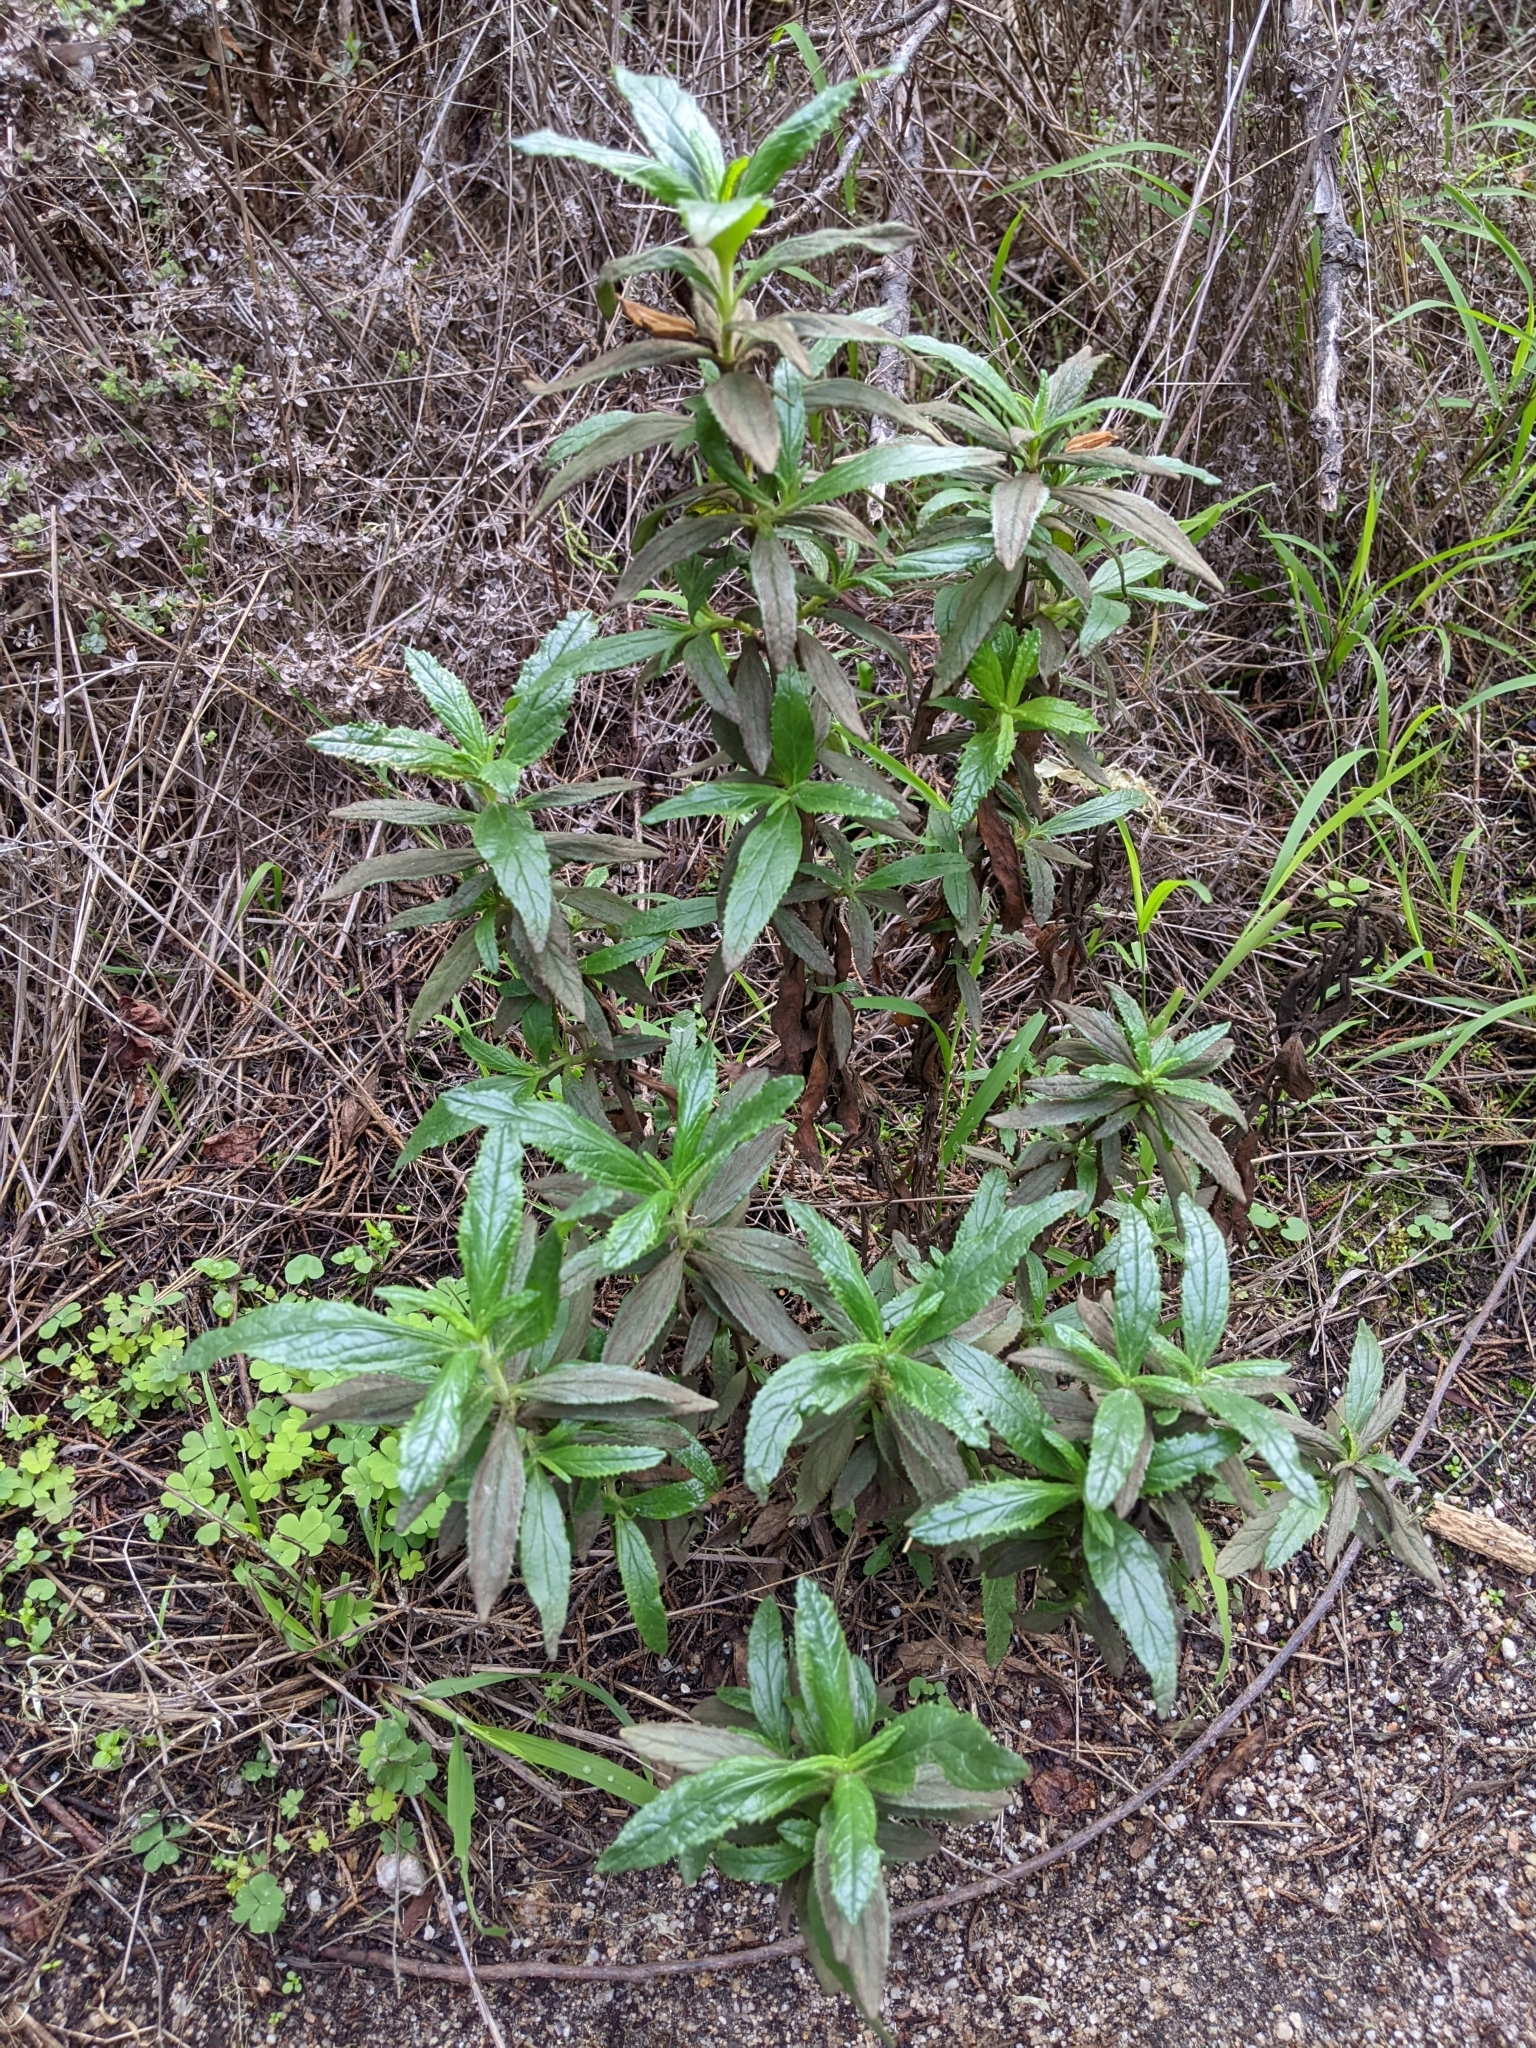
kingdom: Plantae
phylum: Tracheophyta
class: Magnoliopsida
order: Lamiales
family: Phrymaceae
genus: Diplacus
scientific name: Diplacus aurantiacus
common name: Bush monkey-flower
